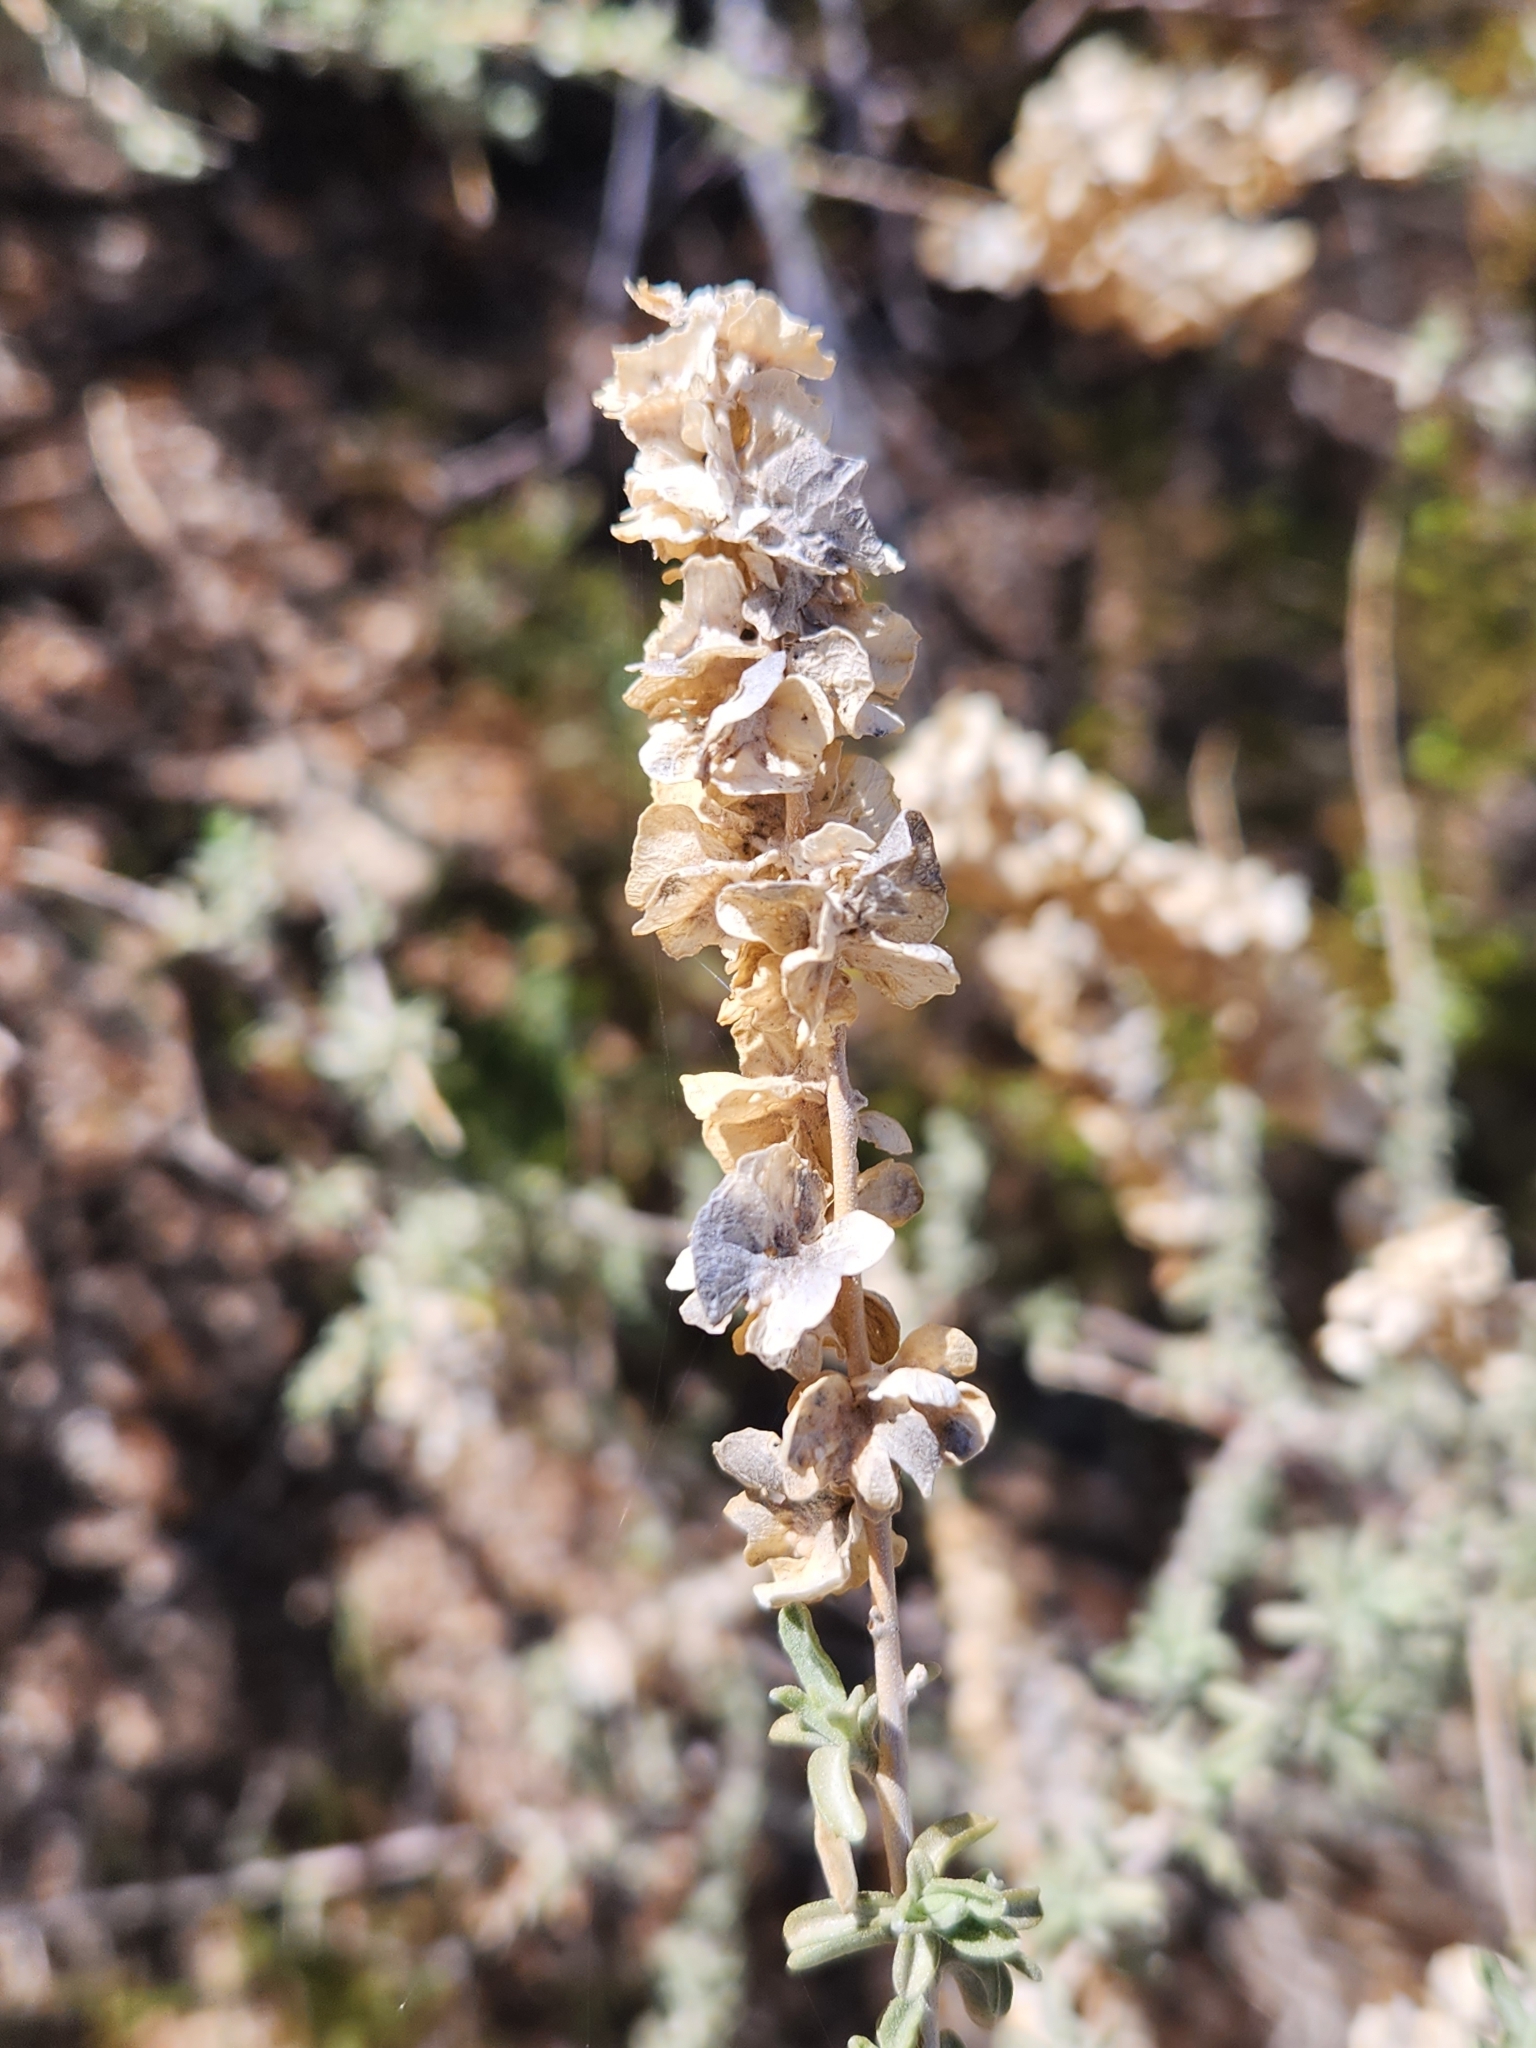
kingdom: Plantae
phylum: Tracheophyta
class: Magnoliopsida
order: Caryophyllales
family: Amaranthaceae
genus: Atriplex
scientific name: Atriplex canescens
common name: Four-wing saltbush
